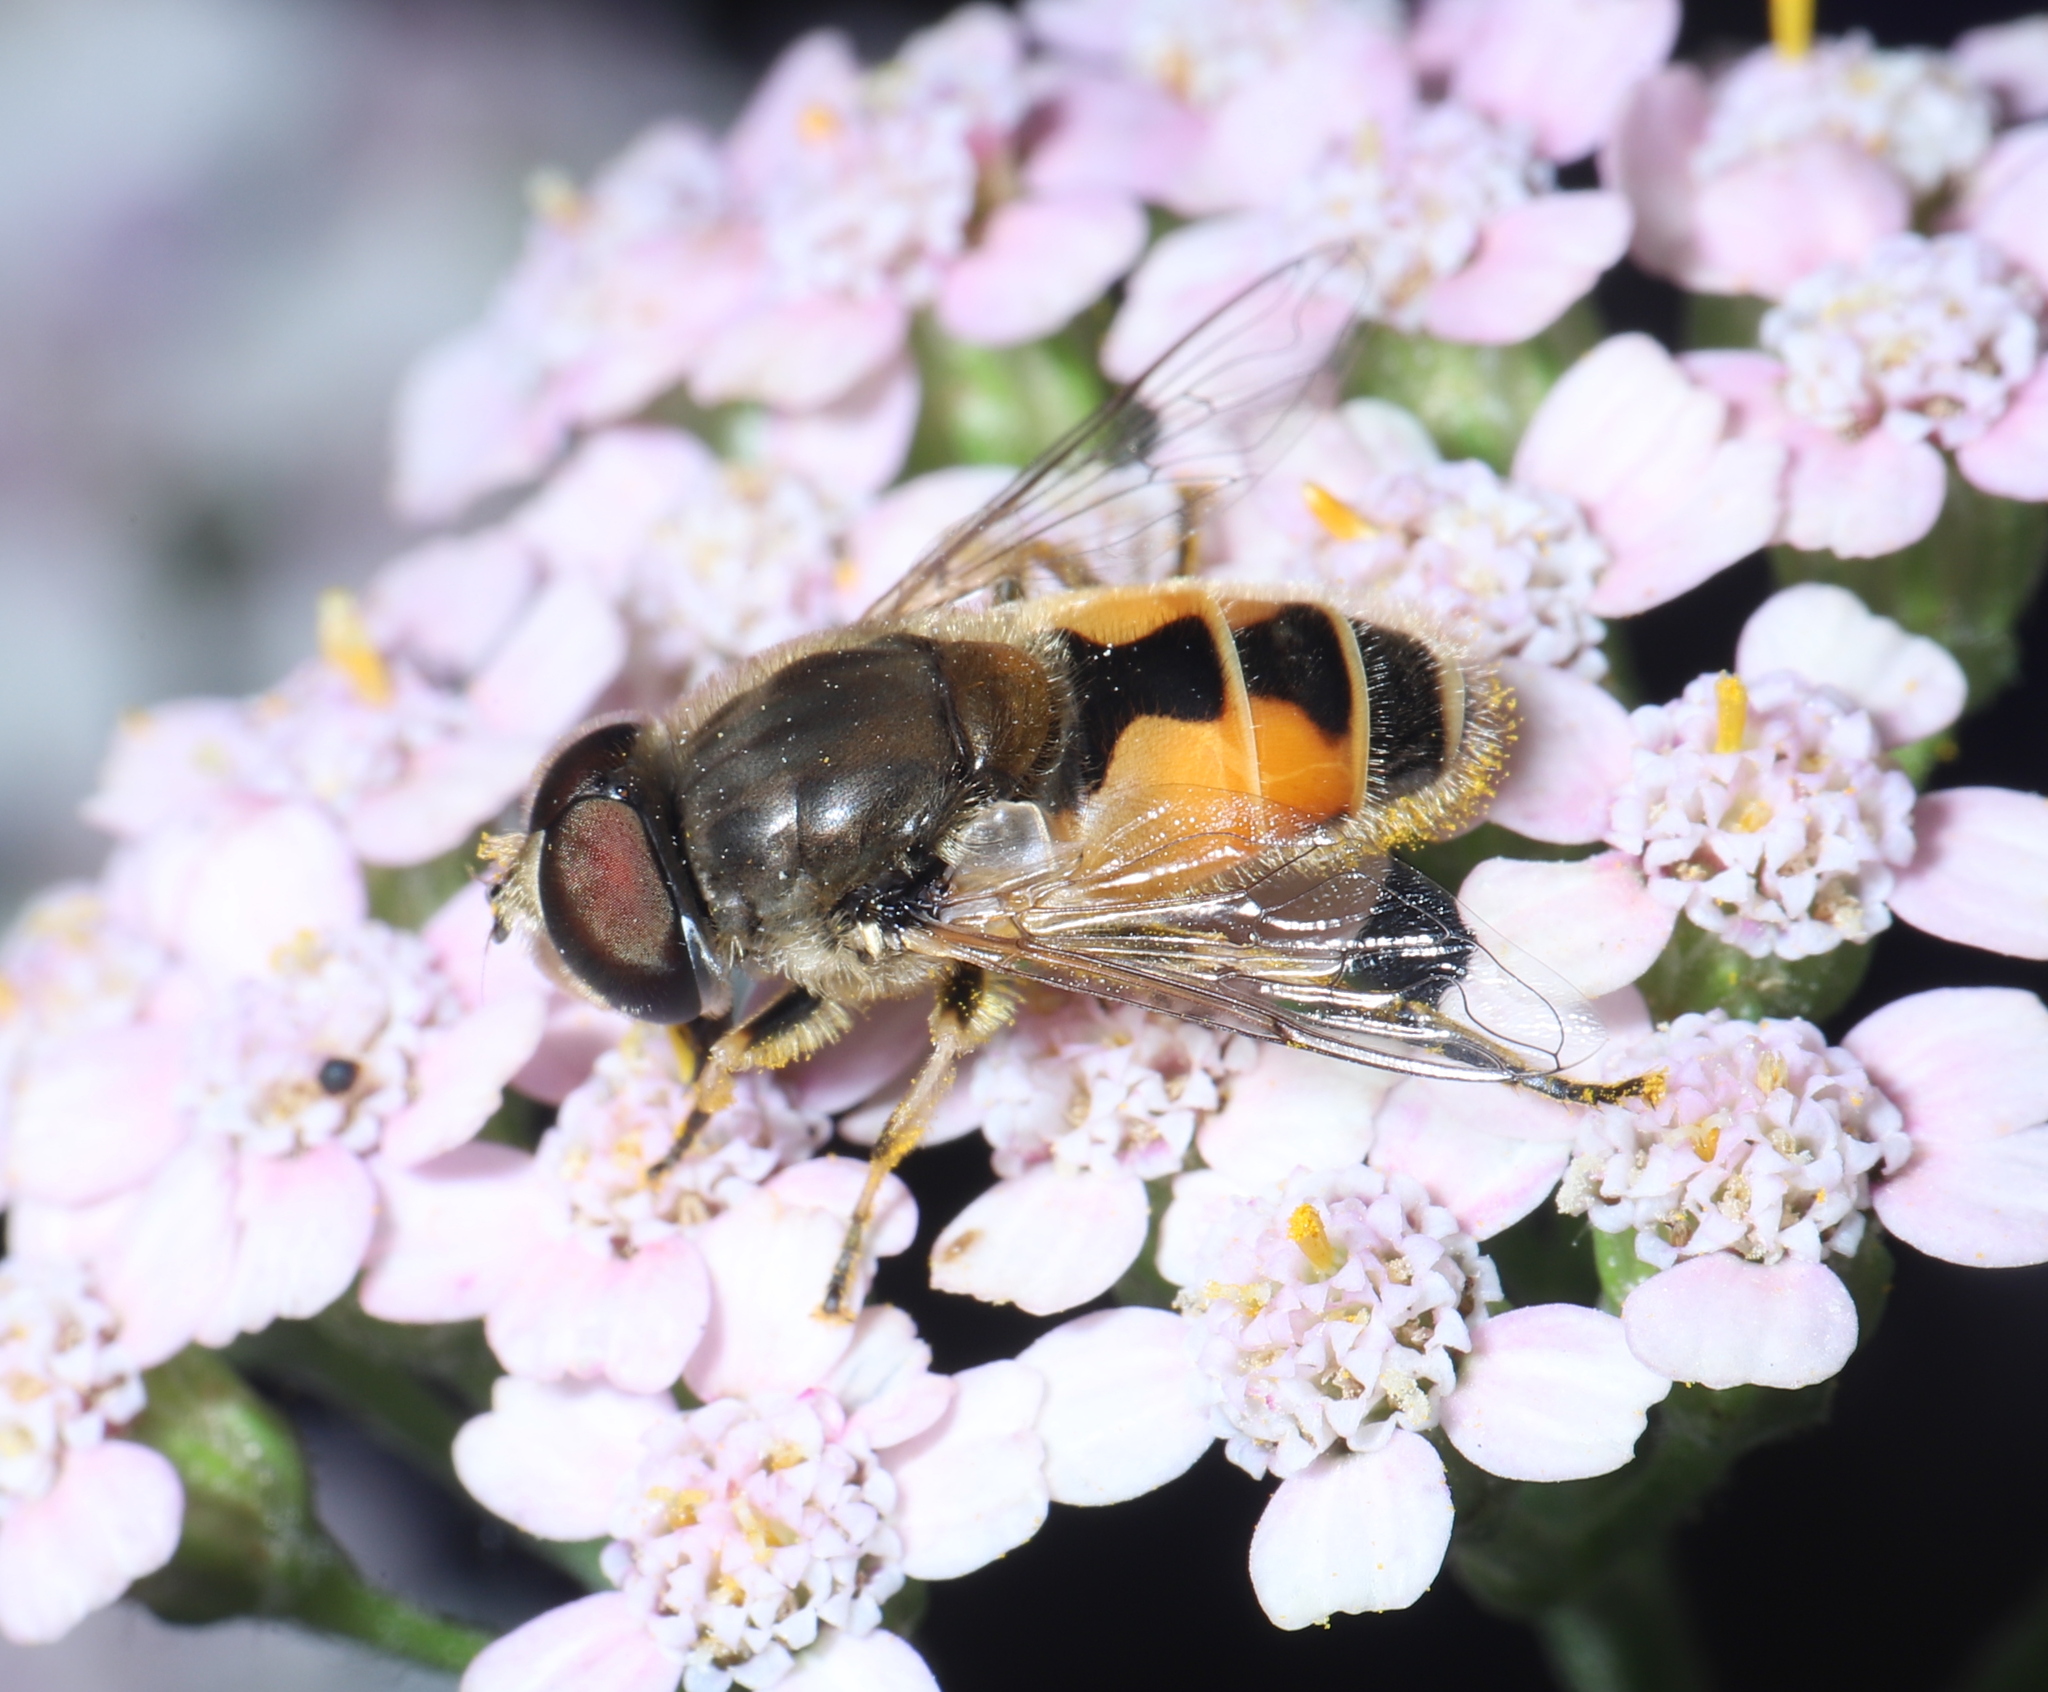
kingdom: Animalia
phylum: Arthropoda
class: Insecta
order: Diptera
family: Syrphidae
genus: Eristalis
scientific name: Eristalis arbustorum
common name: Hover fly
